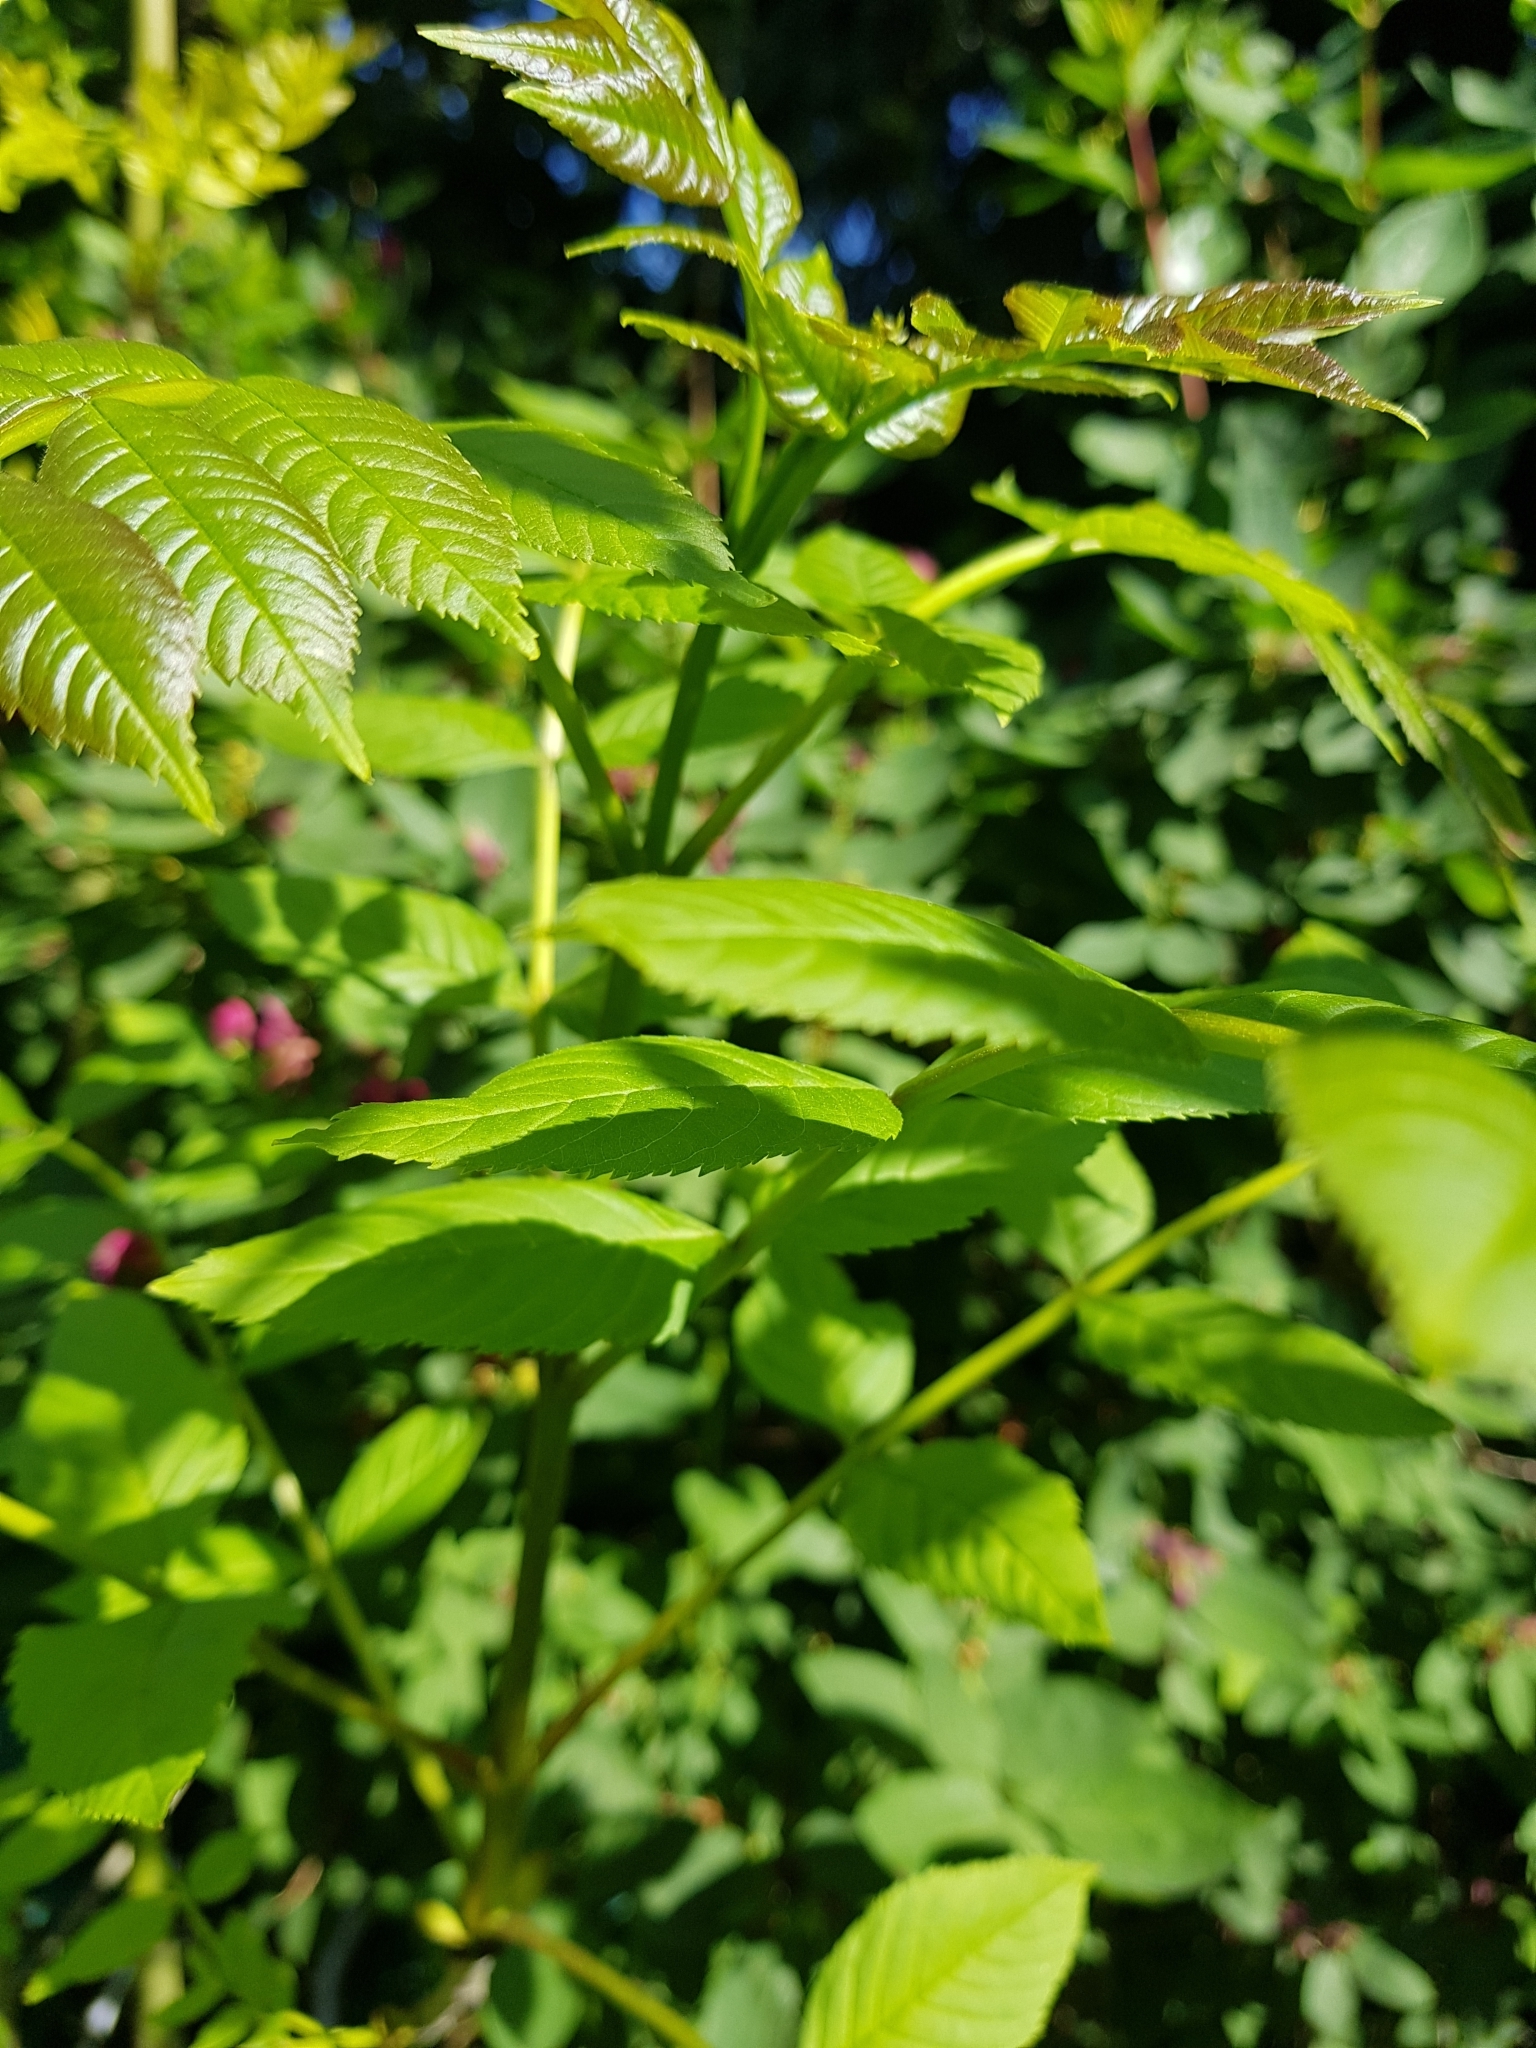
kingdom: Plantae
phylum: Tracheophyta
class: Magnoliopsida
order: Lamiales
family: Oleaceae
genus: Fraxinus
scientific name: Fraxinus excelsior
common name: European ash
